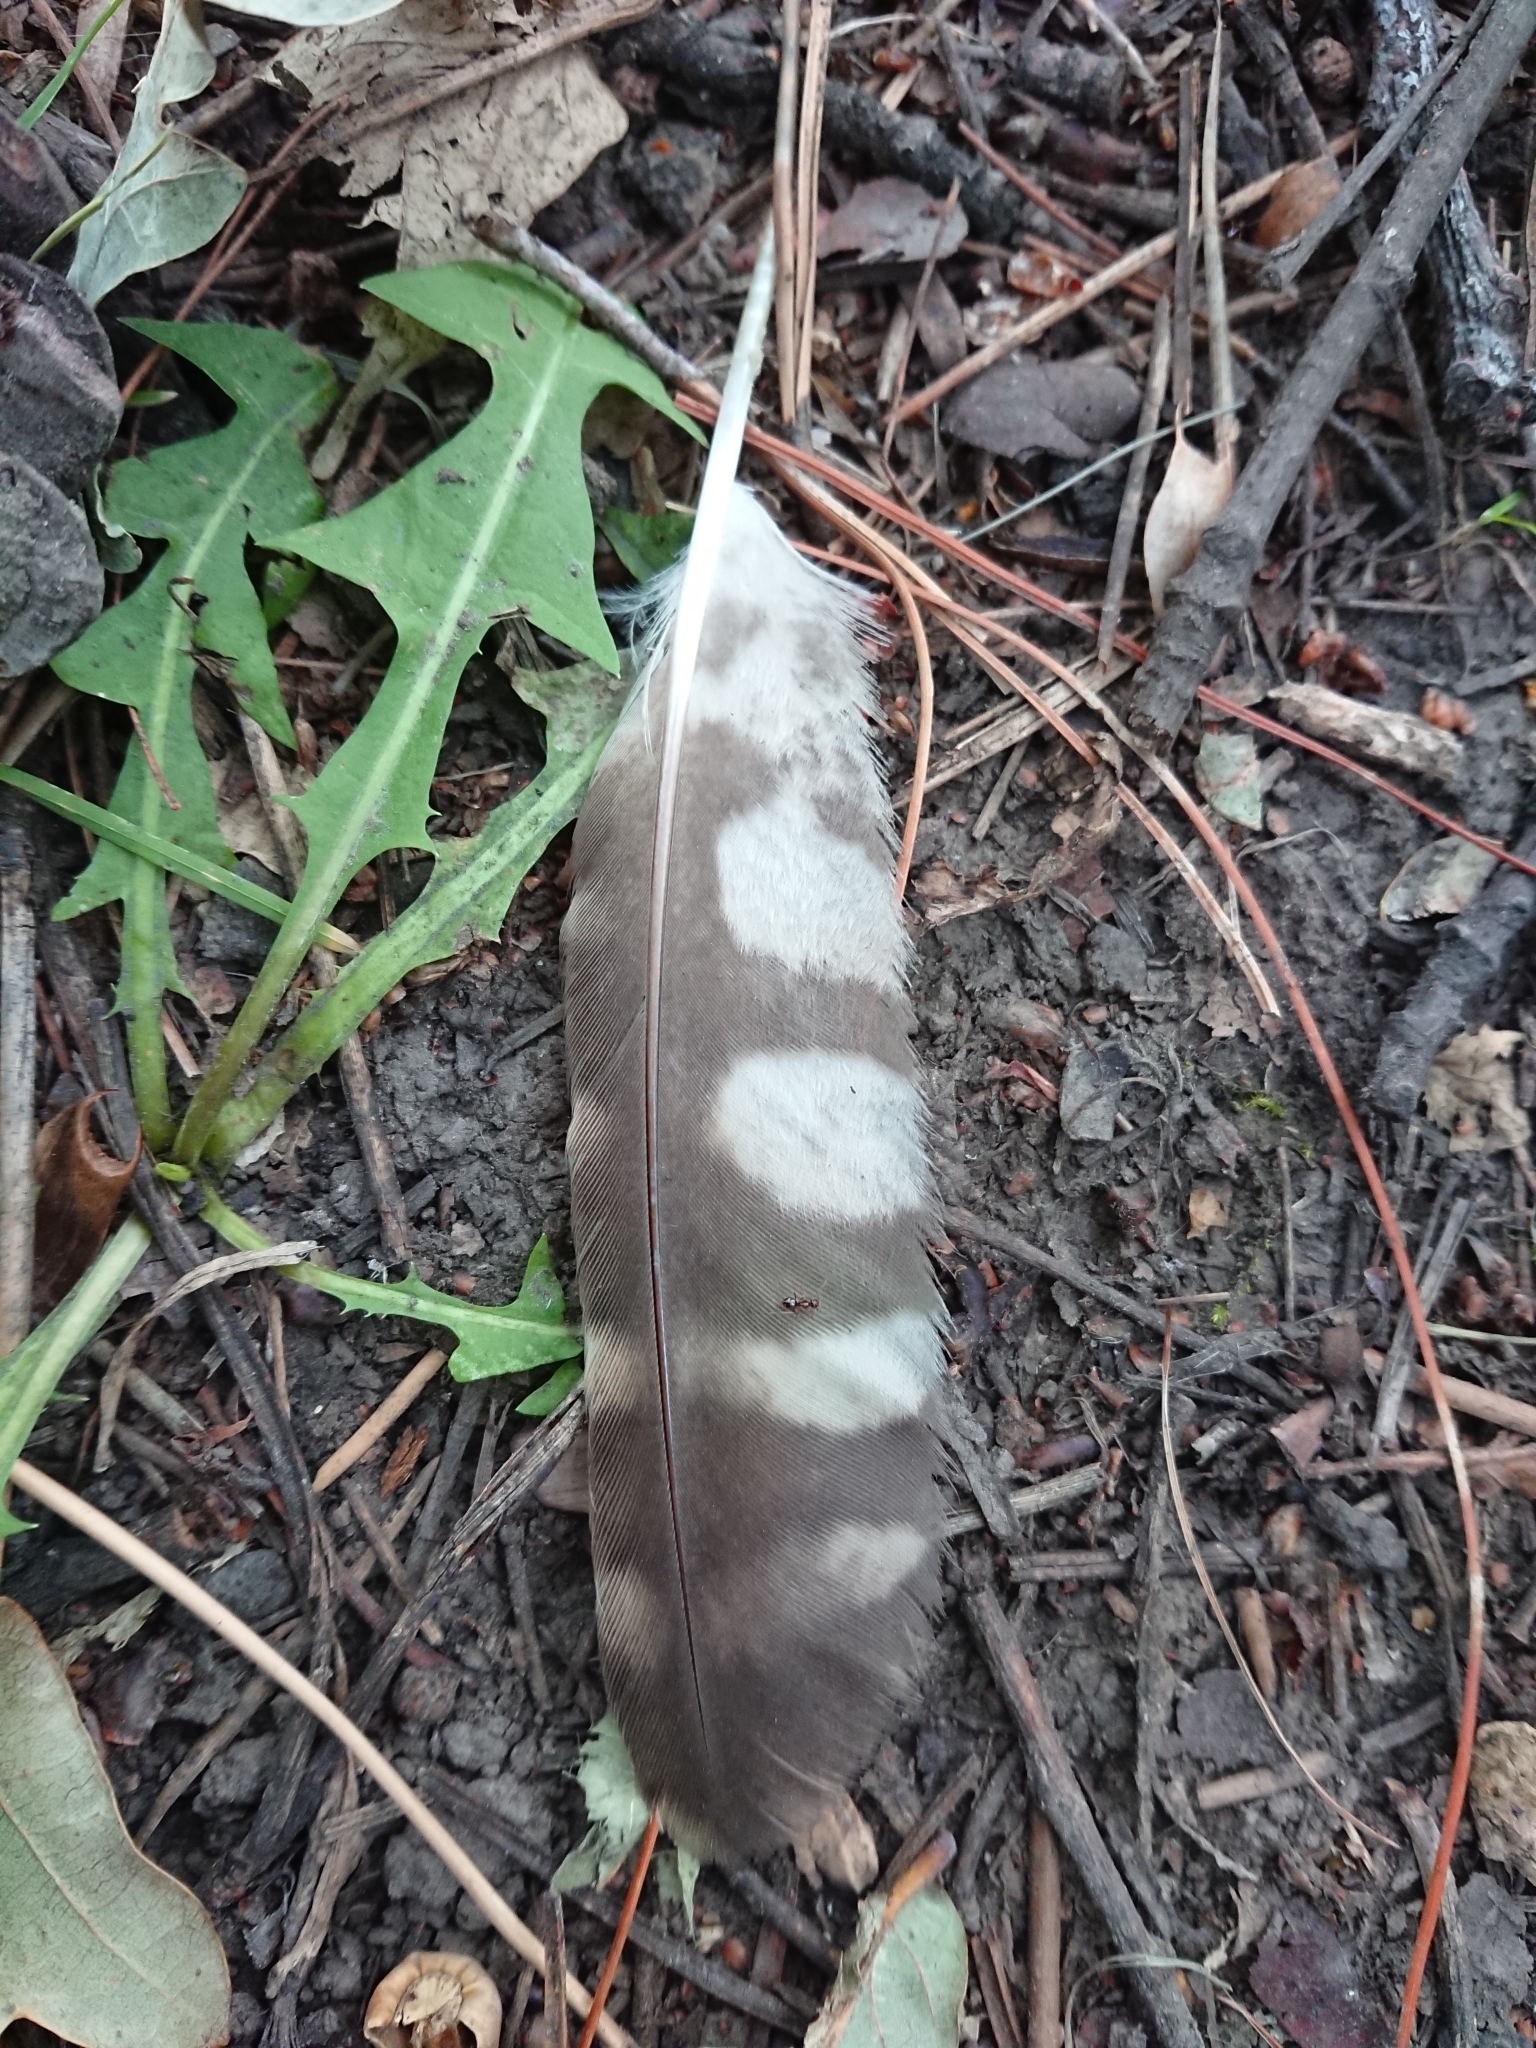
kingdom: Animalia
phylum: Chordata
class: Aves
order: Strigiformes
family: Strigidae
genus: Athene
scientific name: Athene noctua
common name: Little owl
